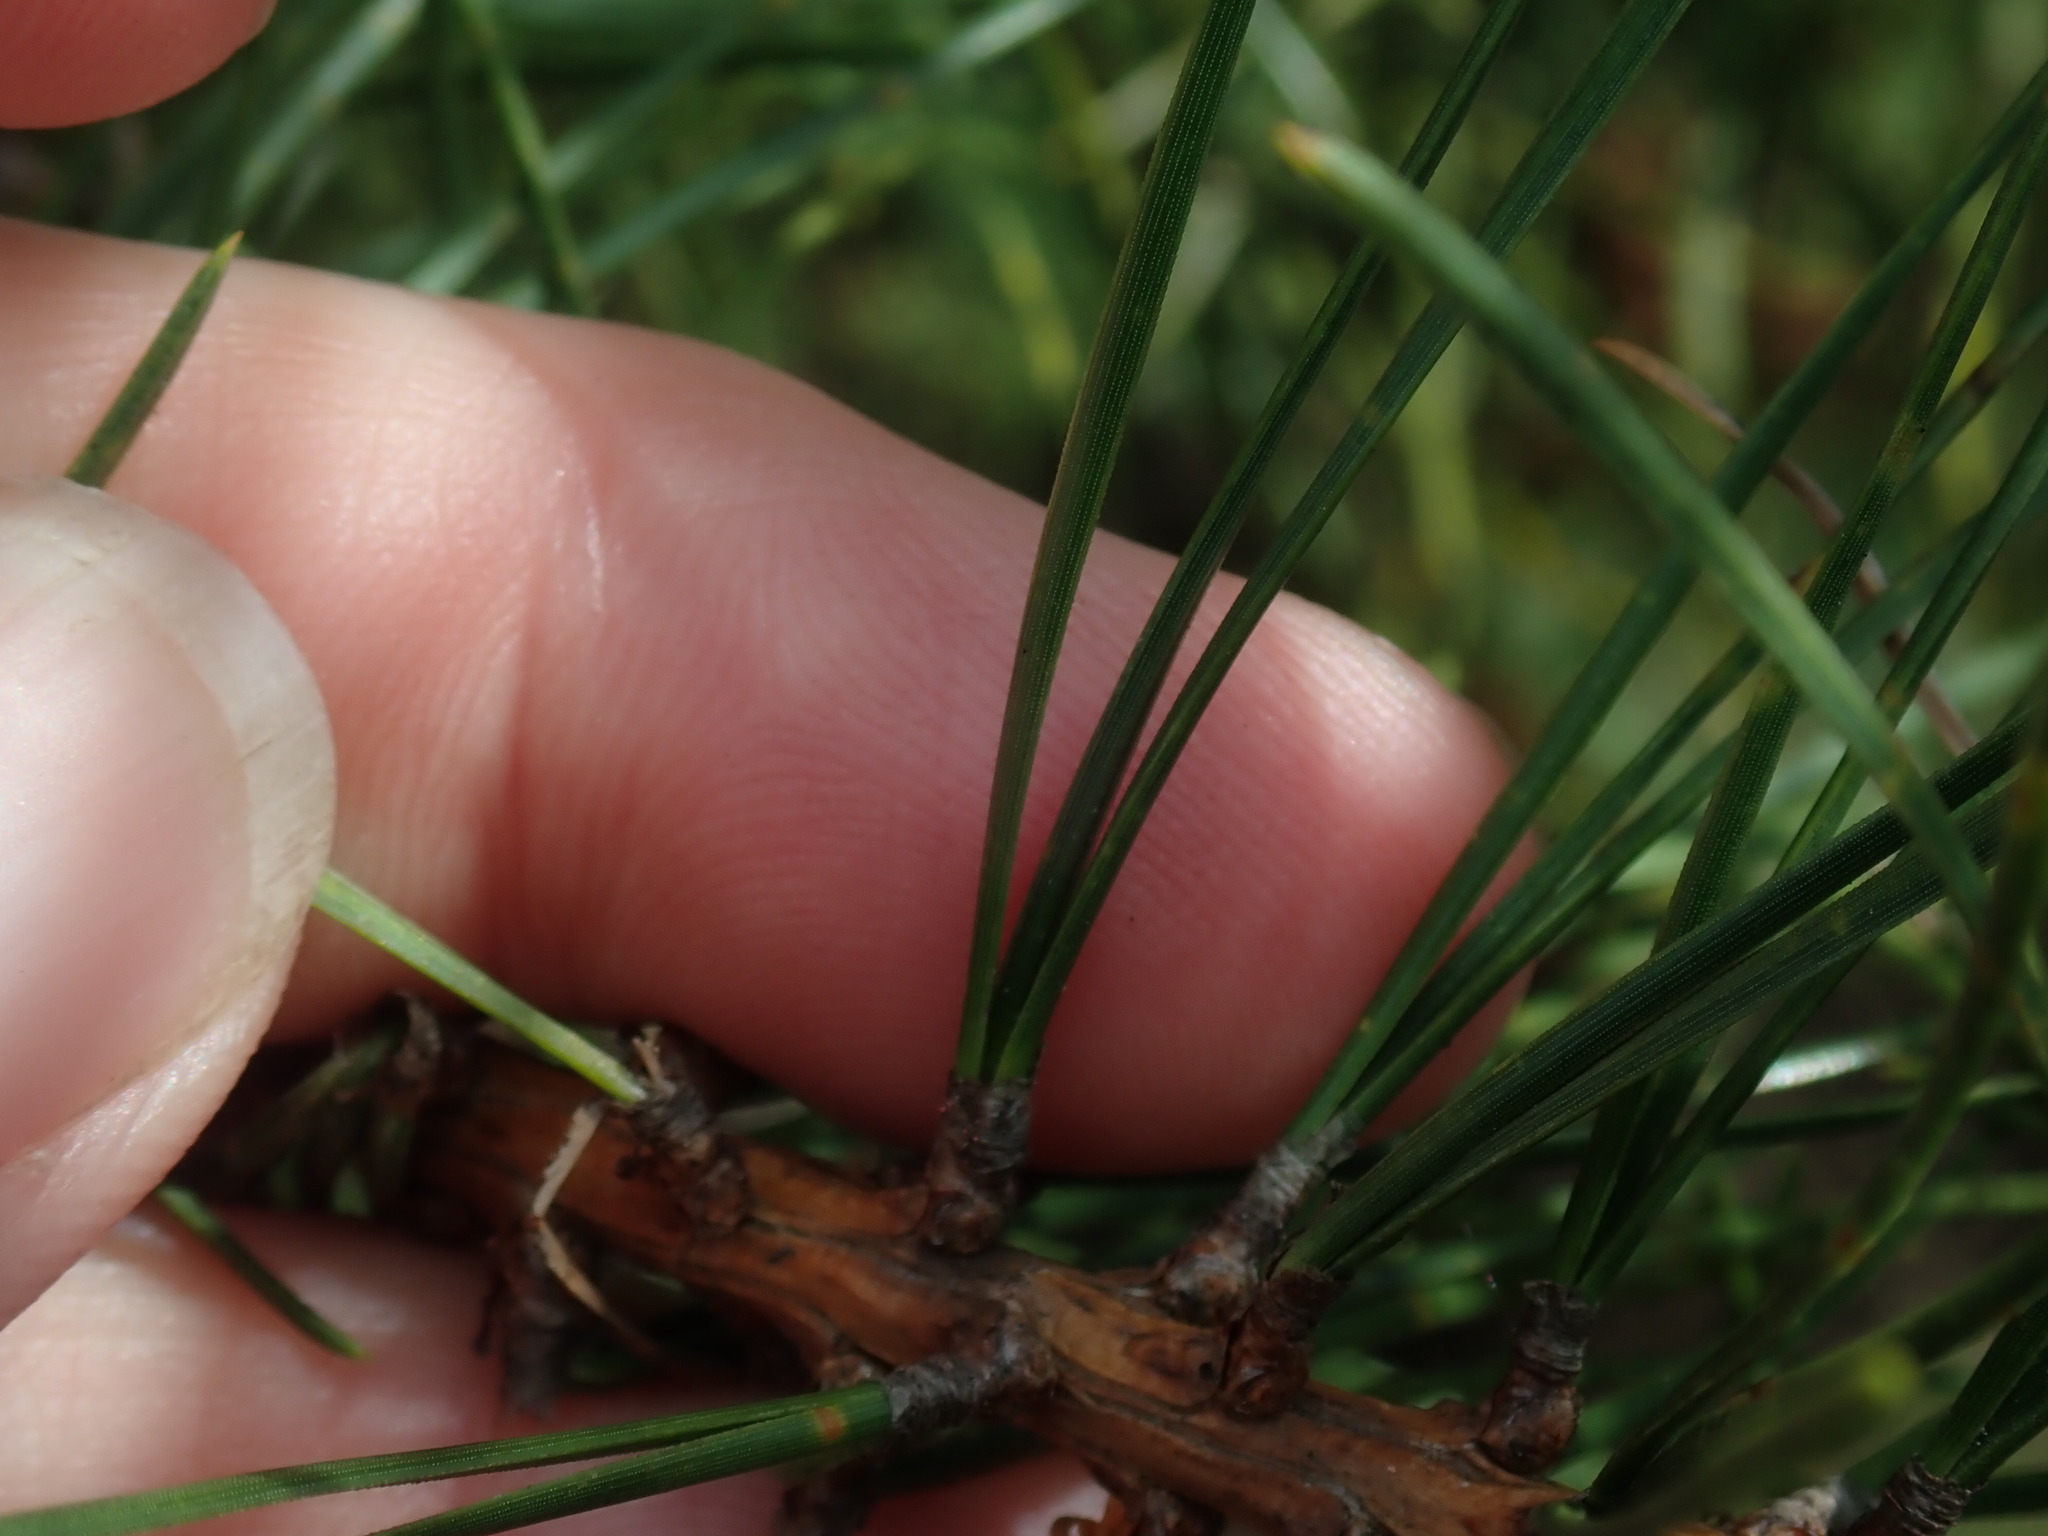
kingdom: Plantae
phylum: Tracheophyta
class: Pinopsida
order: Pinales
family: Pinaceae
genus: Pinus
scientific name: Pinus rigida
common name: Pitch pine
